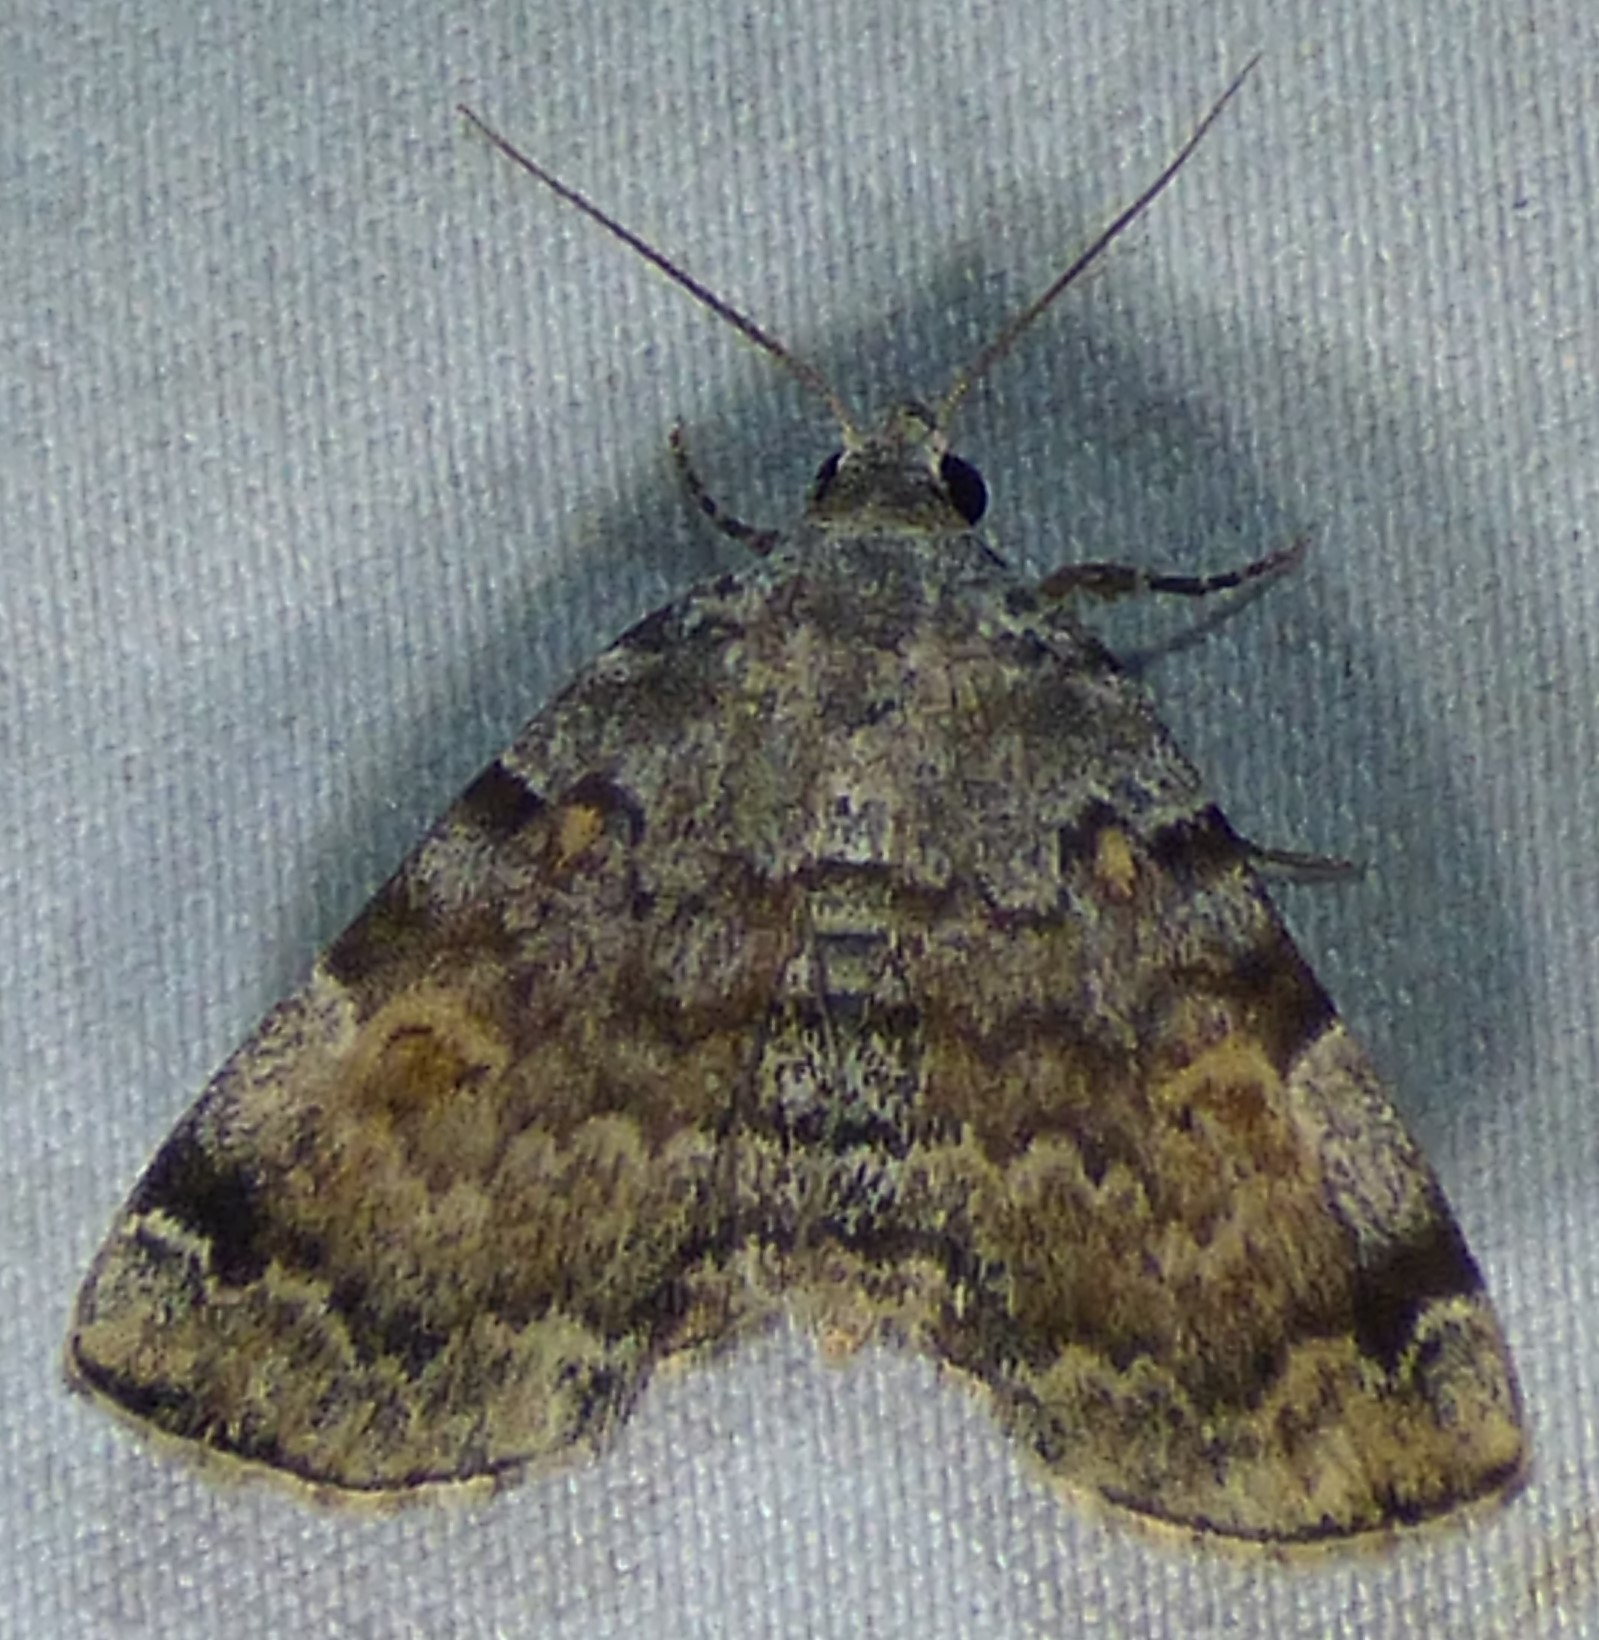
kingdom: Animalia
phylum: Arthropoda
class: Insecta
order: Lepidoptera
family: Erebidae
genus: Idia
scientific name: Idia americalis
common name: American idia moth
